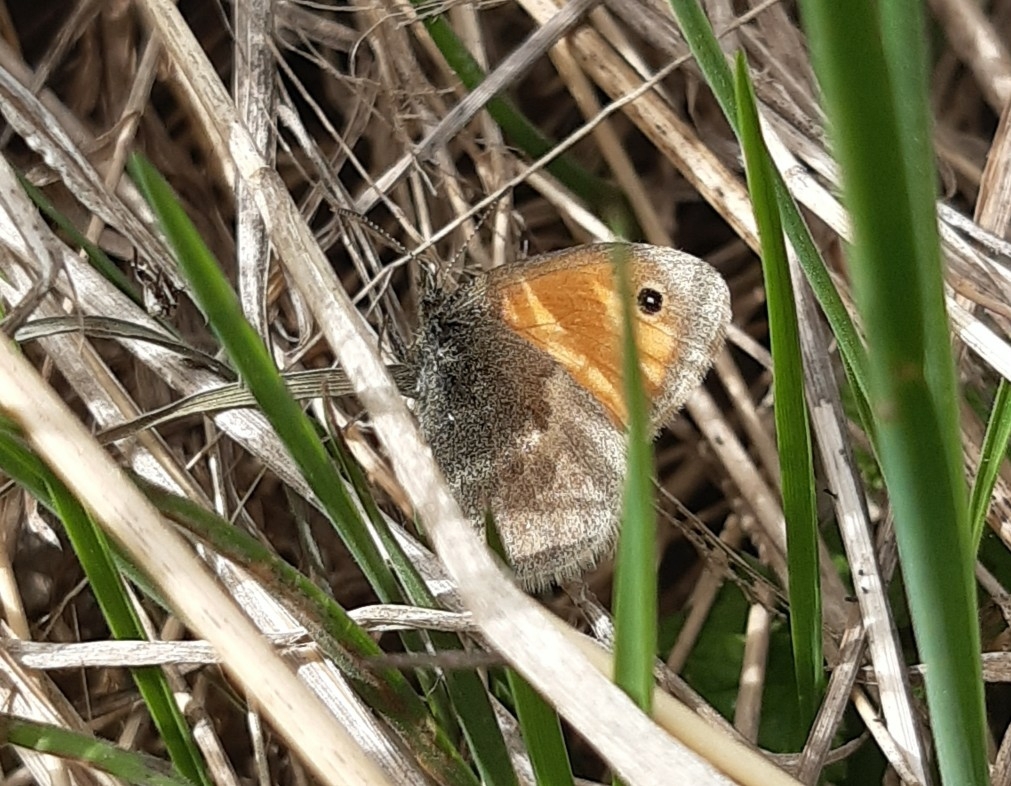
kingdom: Animalia
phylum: Arthropoda
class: Insecta
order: Lepidoptera
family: Nymphalidae
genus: Coenonympha
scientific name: Coenonympha pamphilus
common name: Small heath
